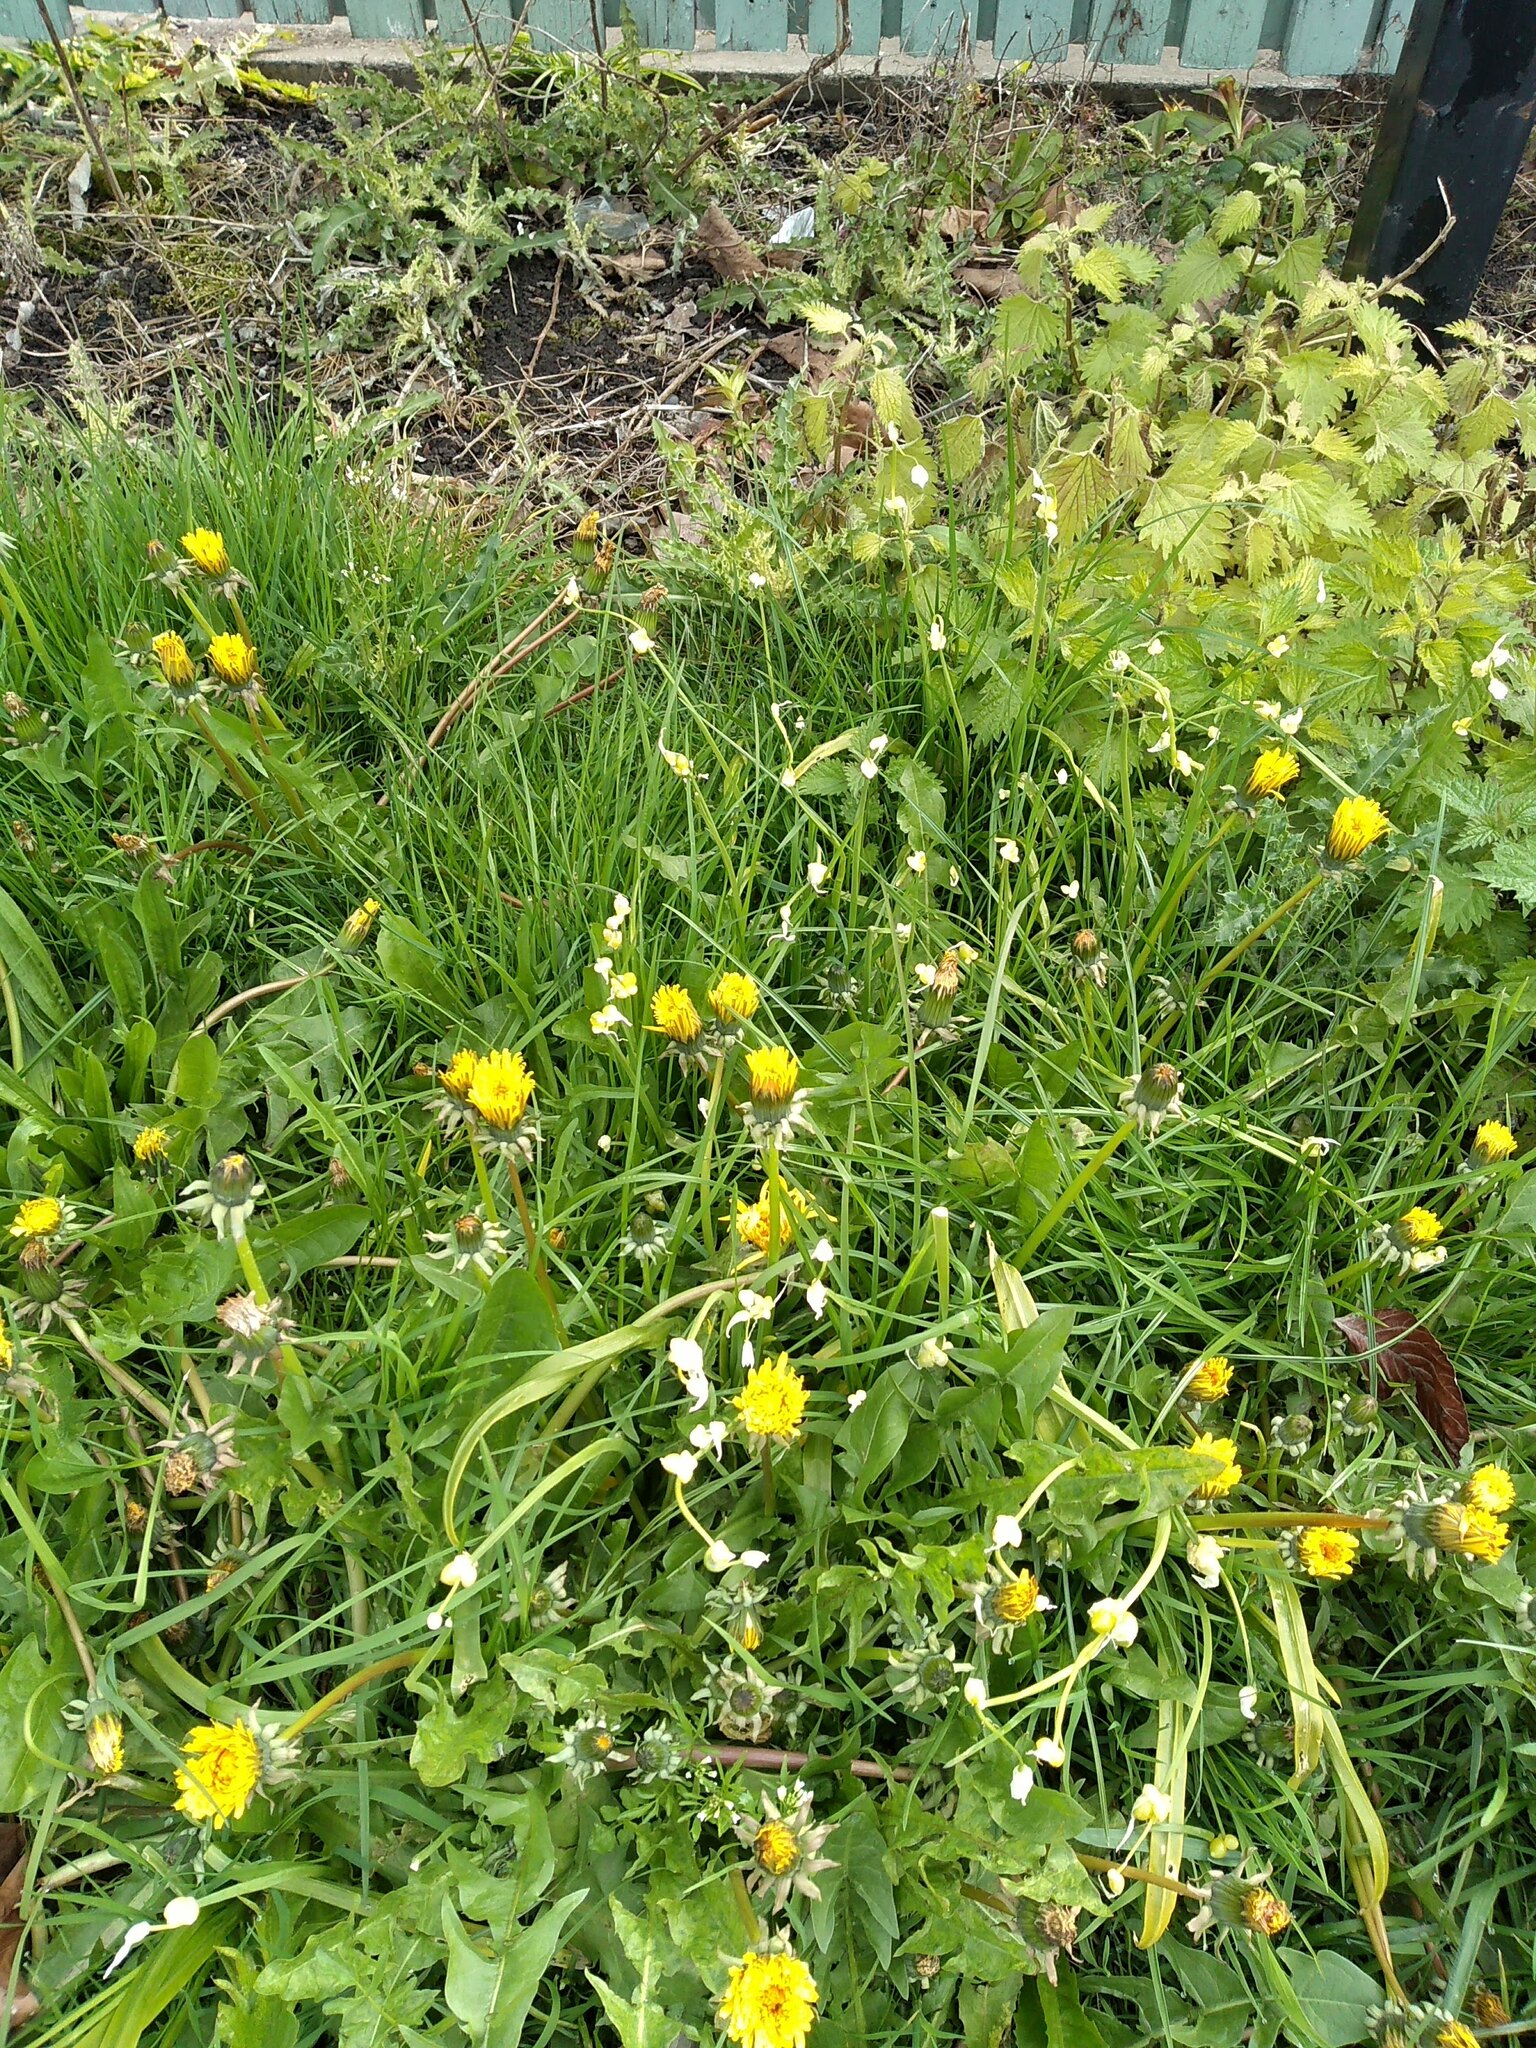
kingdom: Plantae
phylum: Tracheophyta
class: Liliopsida
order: Asparagales
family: Amaryllidaceae
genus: Allium
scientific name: Allium paradoxum
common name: Few-flowered garlic
